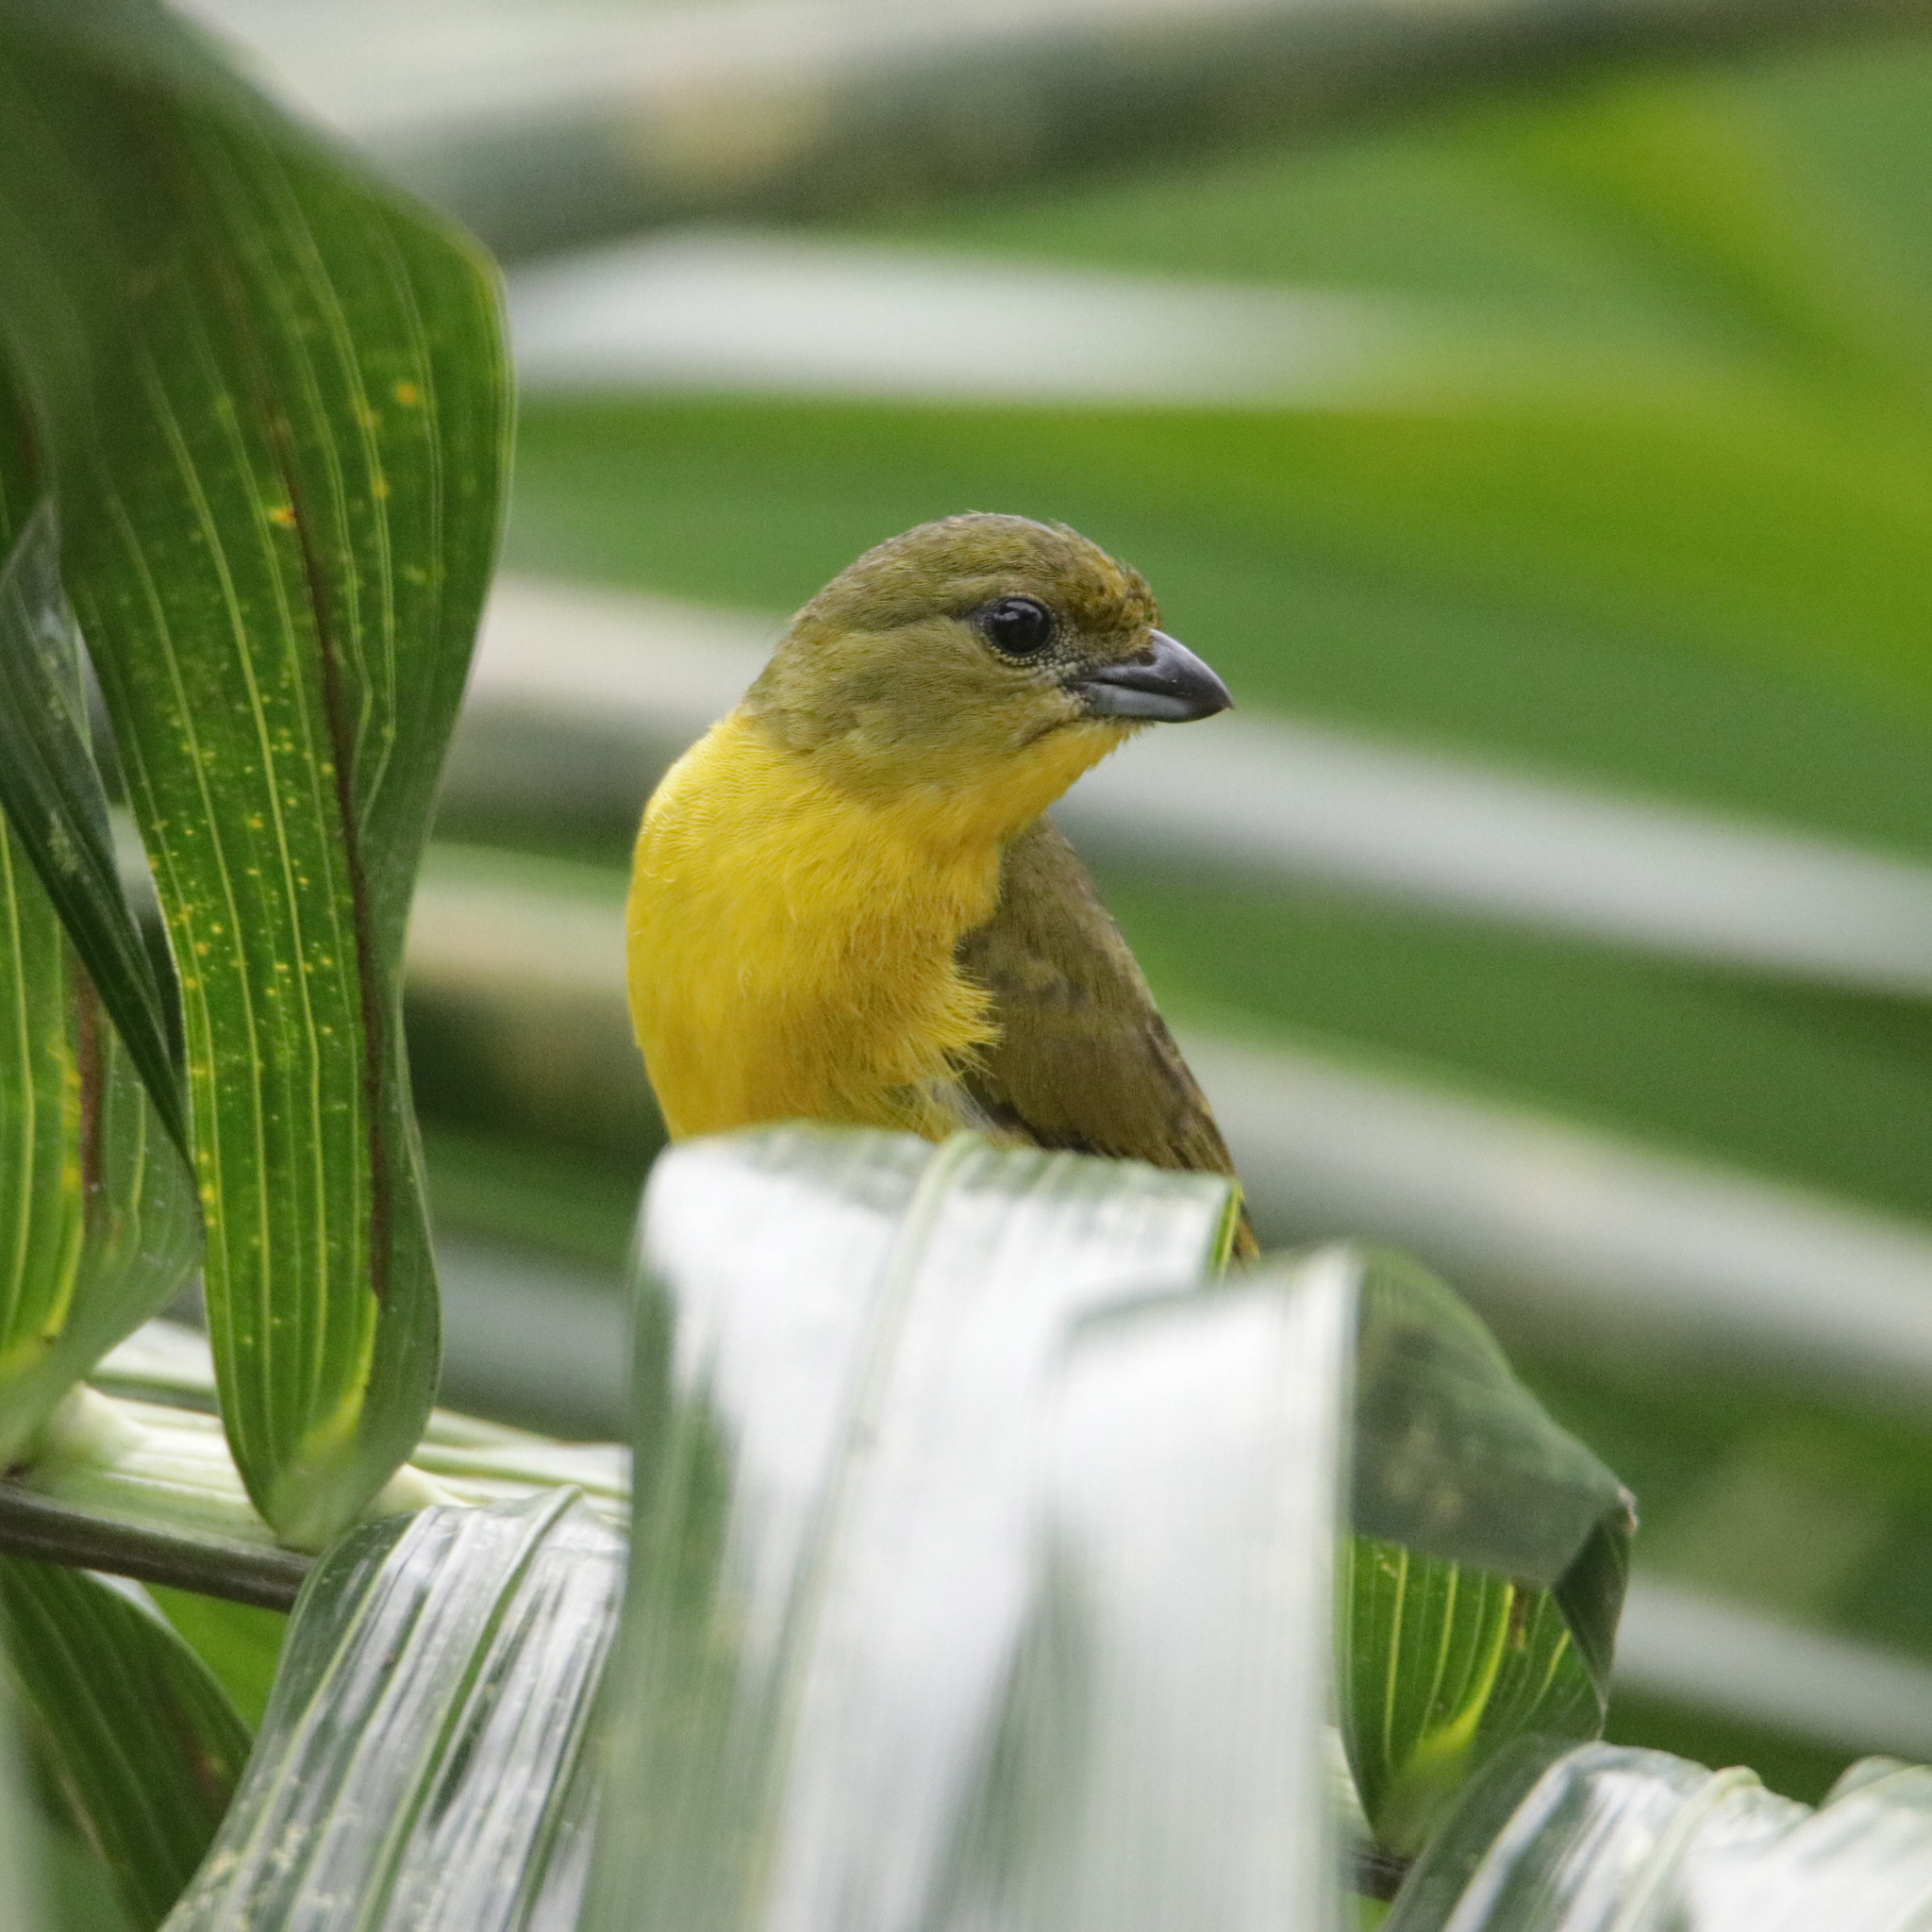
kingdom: Animalia
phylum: Chordata
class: Aves
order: Passeriformes
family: Fringillidae
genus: Euphonia
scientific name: Euphonia laniirostris
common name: Thick-billed euphonia
